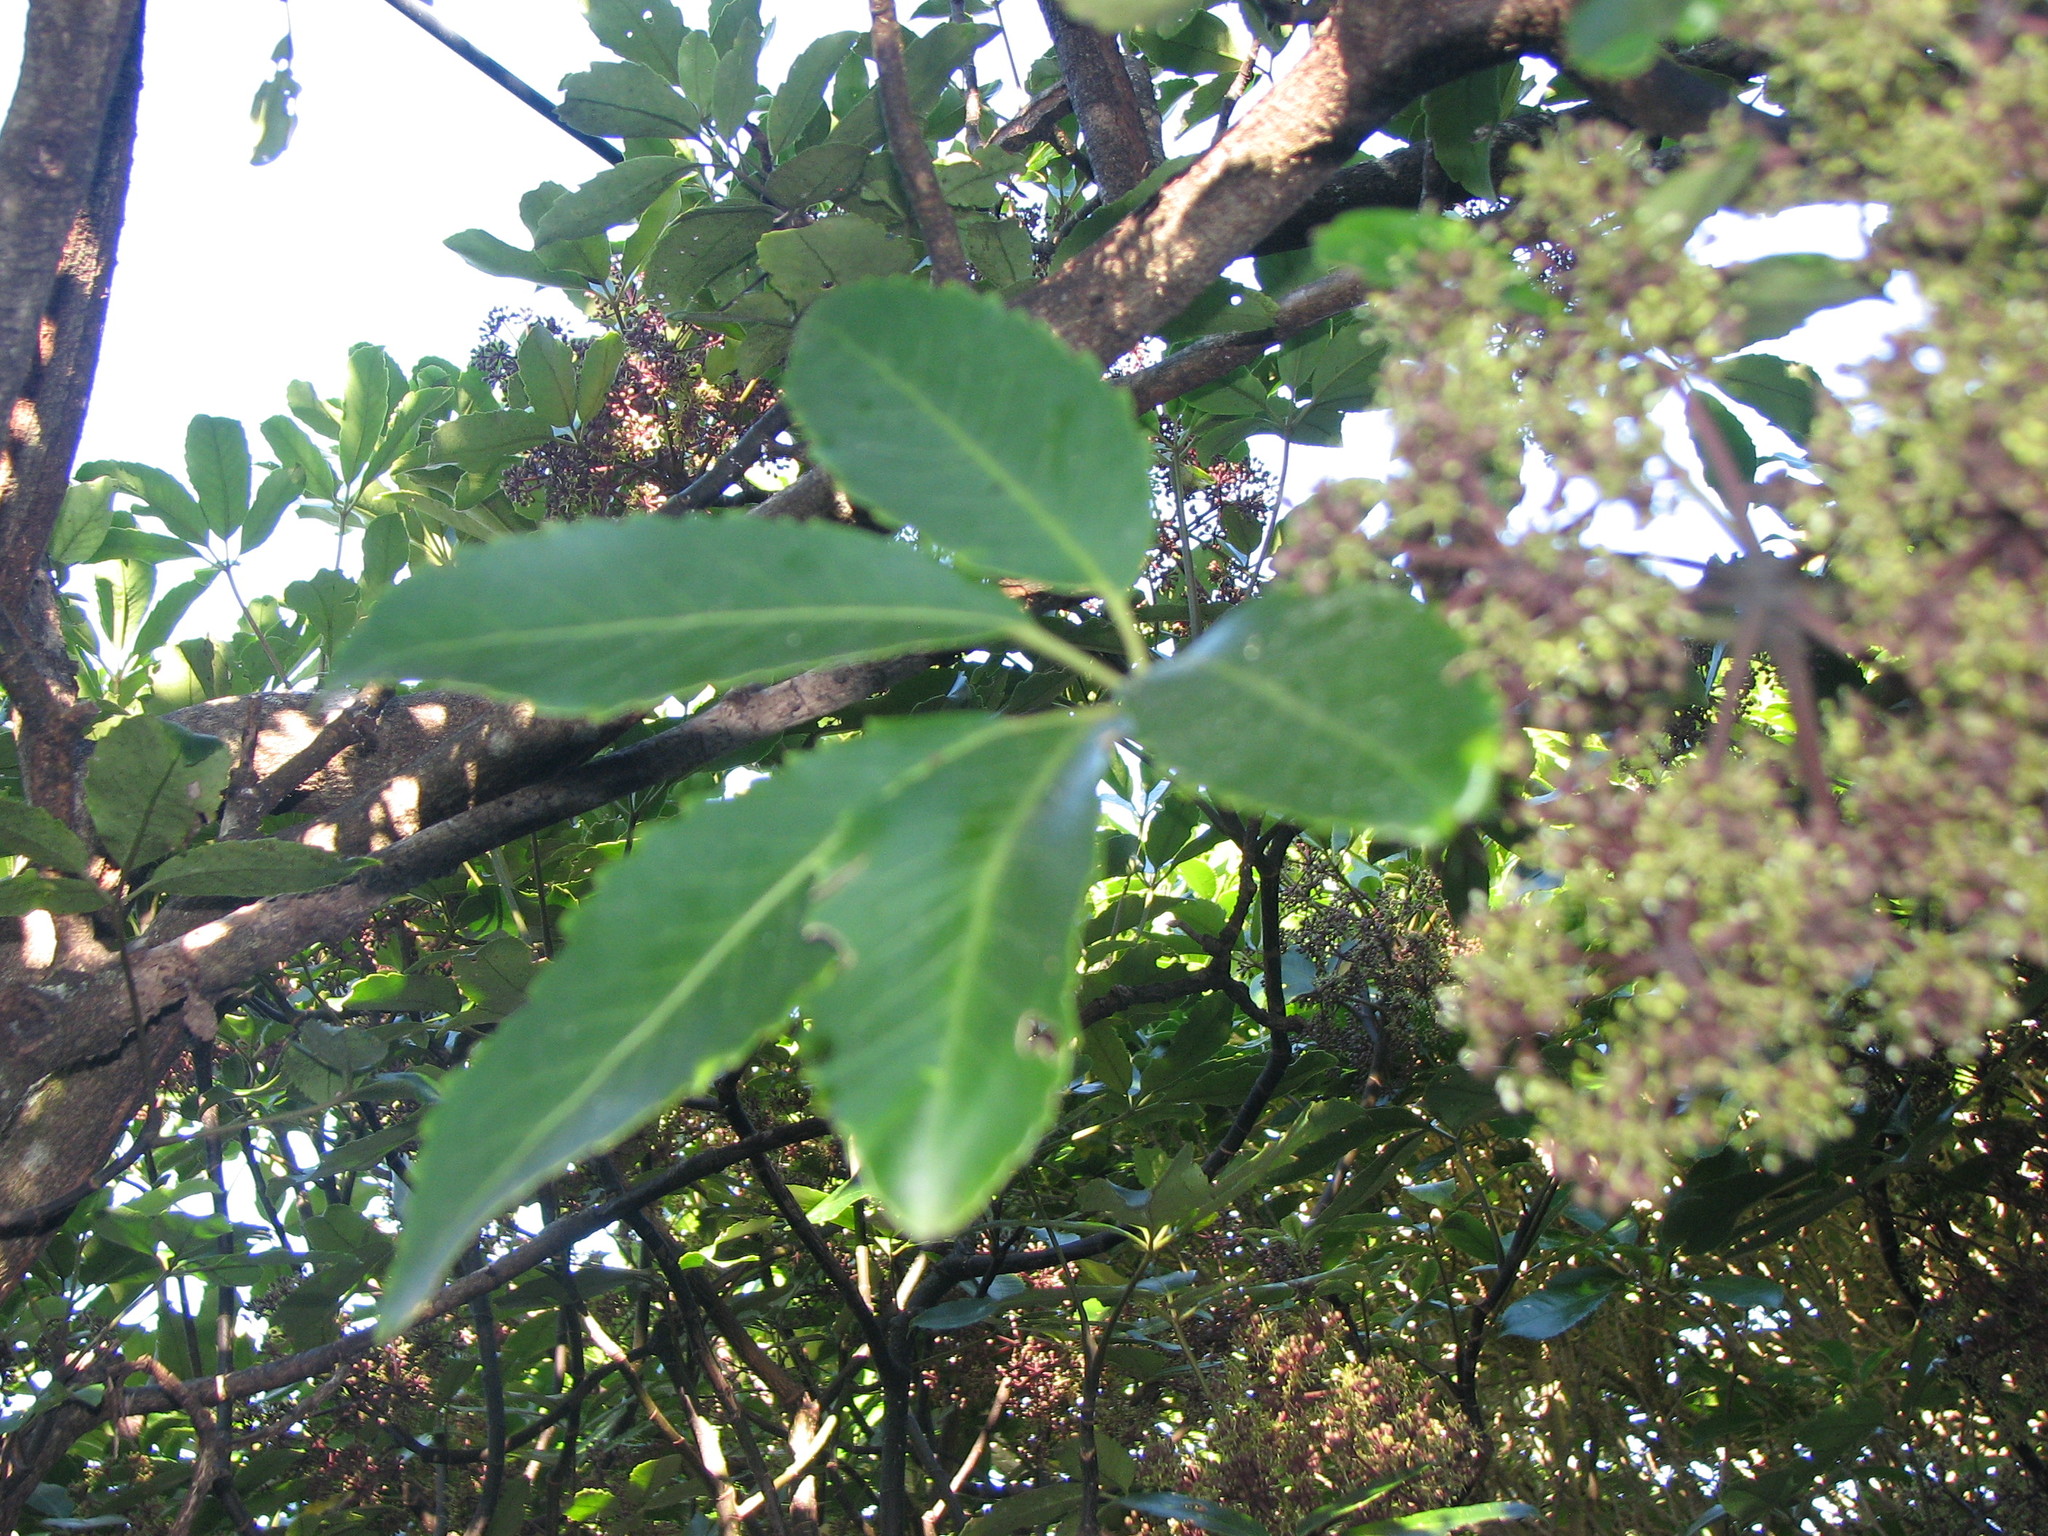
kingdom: Plantae
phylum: Tracheophyta
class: Magnoliopsida
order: Apiales
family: Araliaceae
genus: Neopanax
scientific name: Neopanax arboreus
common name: Five-fingers
